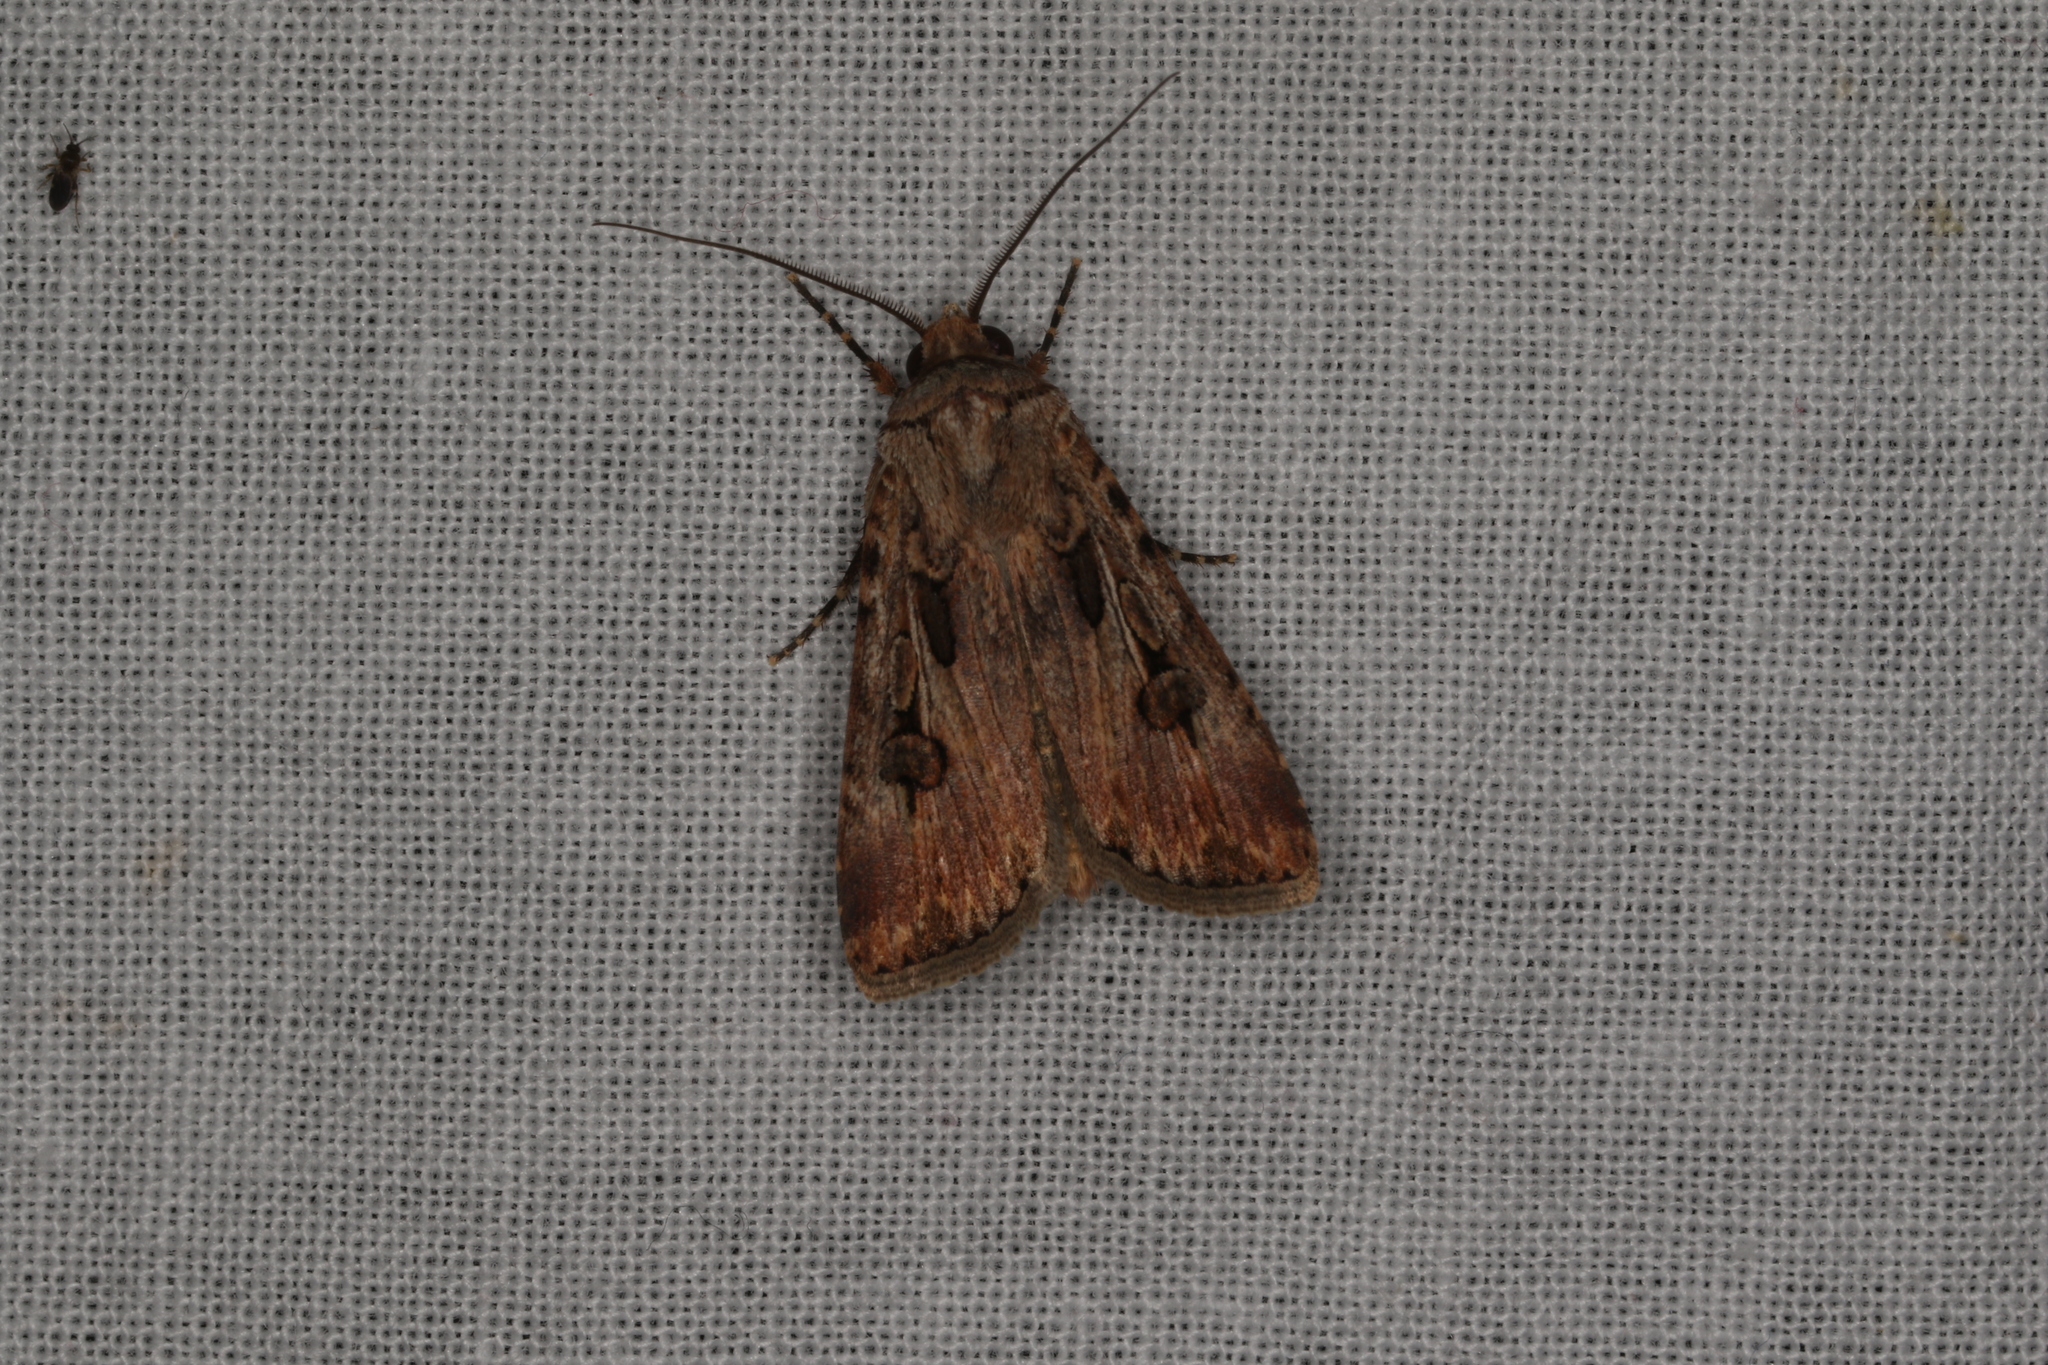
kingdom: Animalia
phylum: Arthropoda
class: Insecta
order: Lepidoptera
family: Noctuidae
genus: Agrotis
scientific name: Agrotis munda
